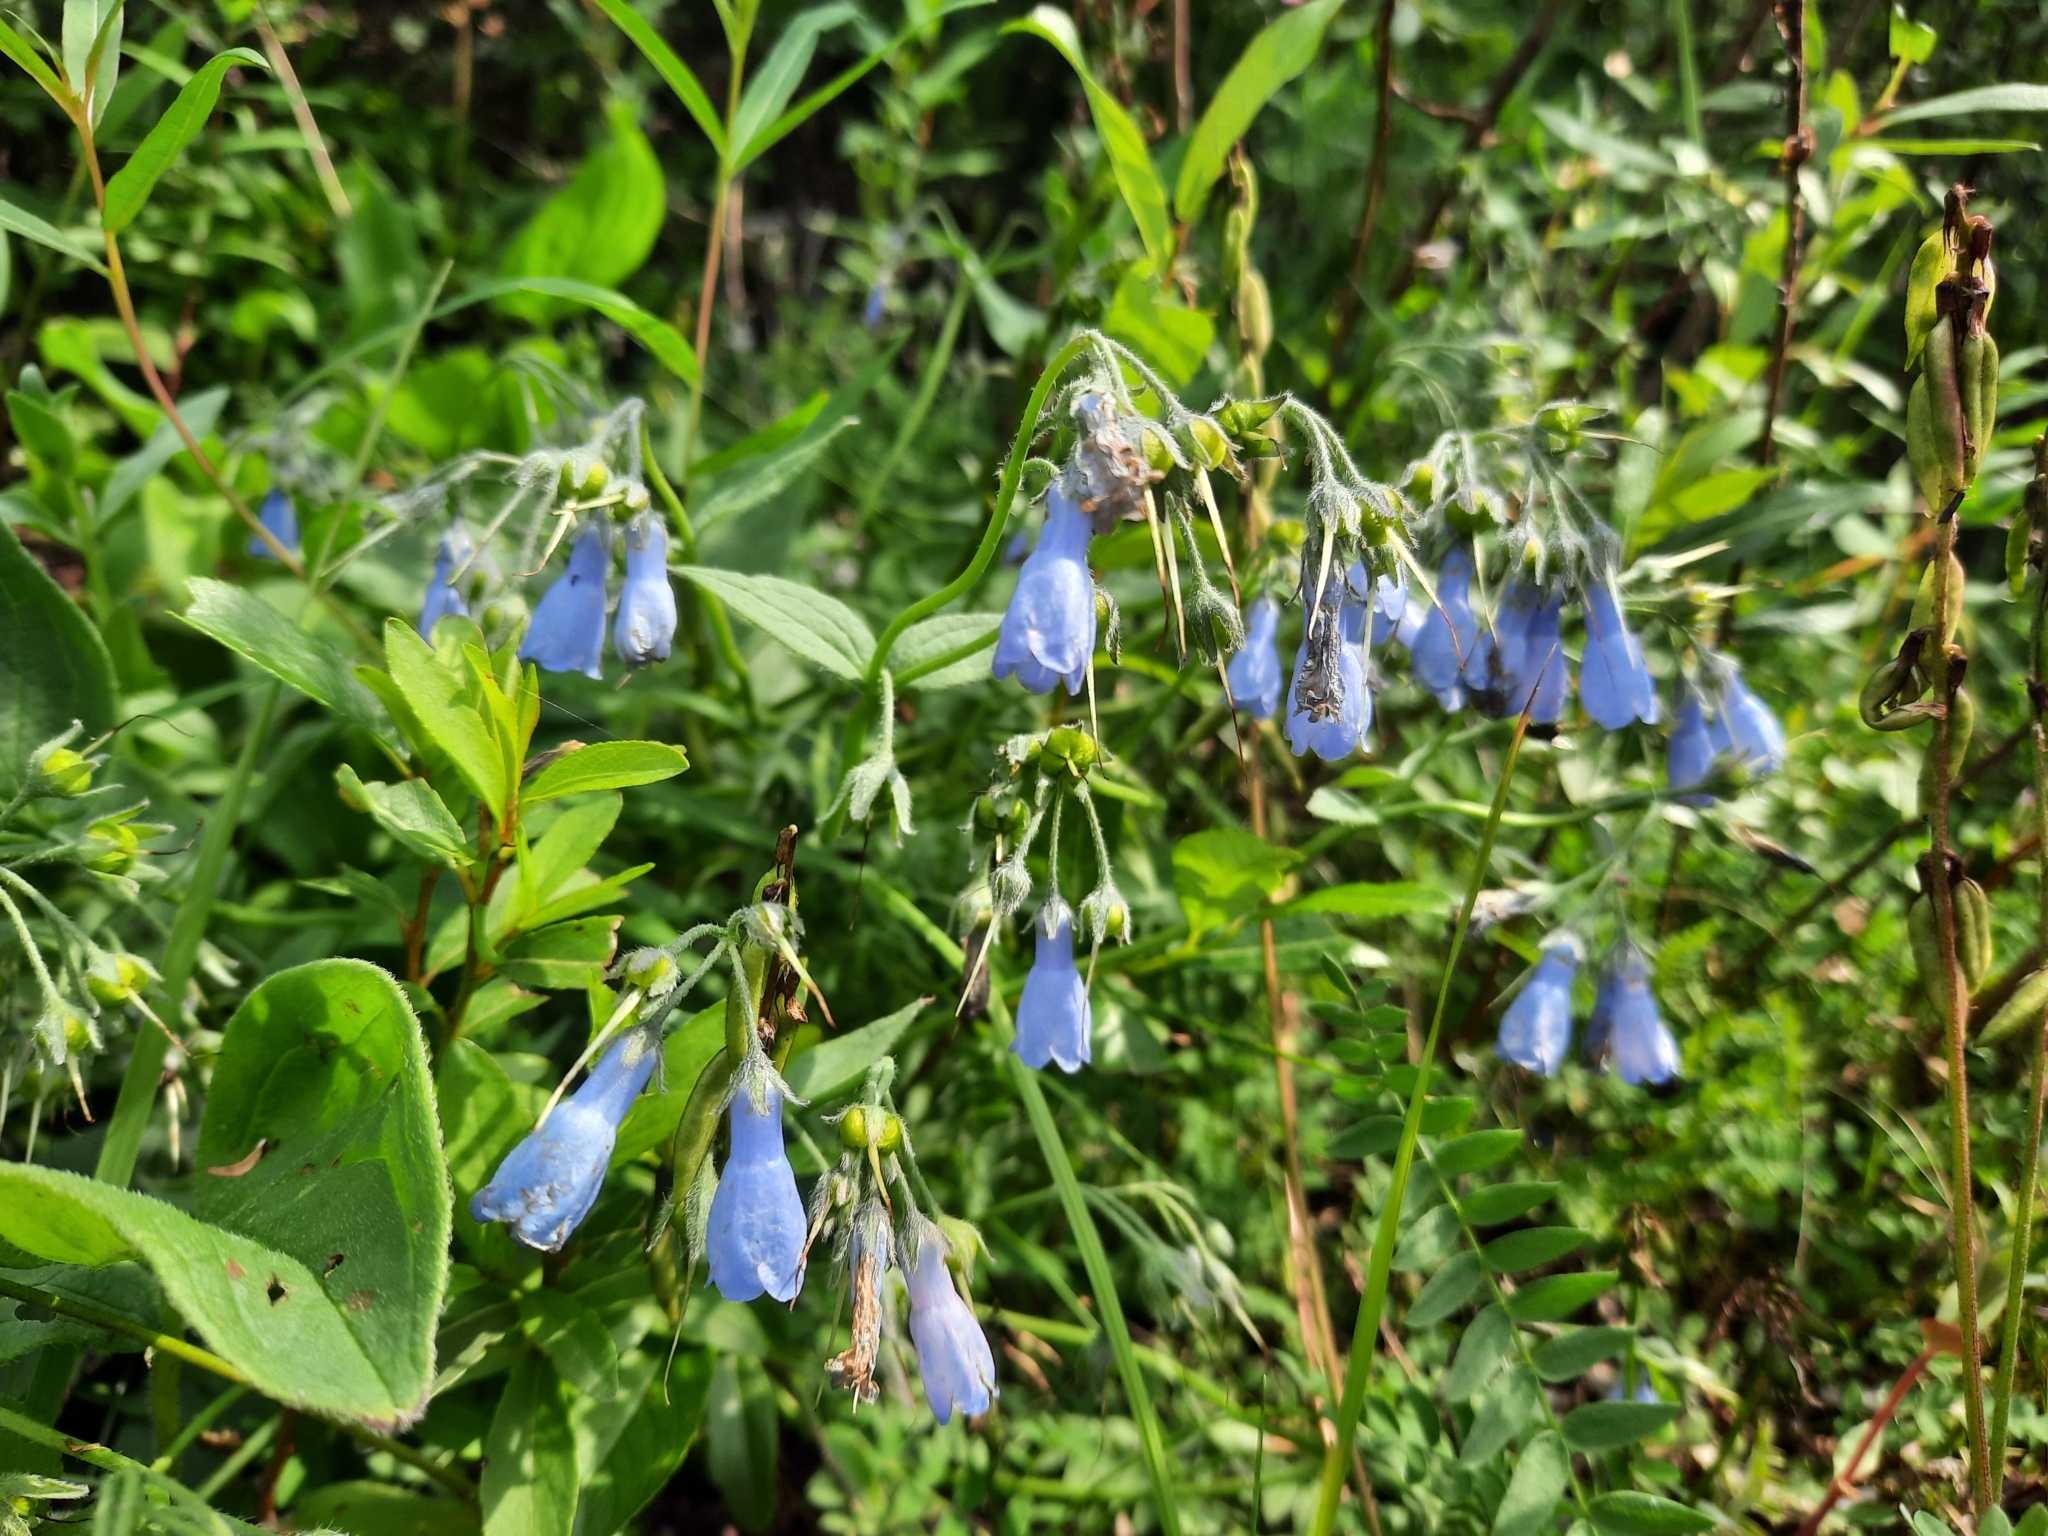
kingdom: Plantae
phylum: Tracheophyta
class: Magnoliopsida
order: Boraginales
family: Boraginaceae
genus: Mertensia
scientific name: Mertensia paniculata
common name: Panicled bluebells
